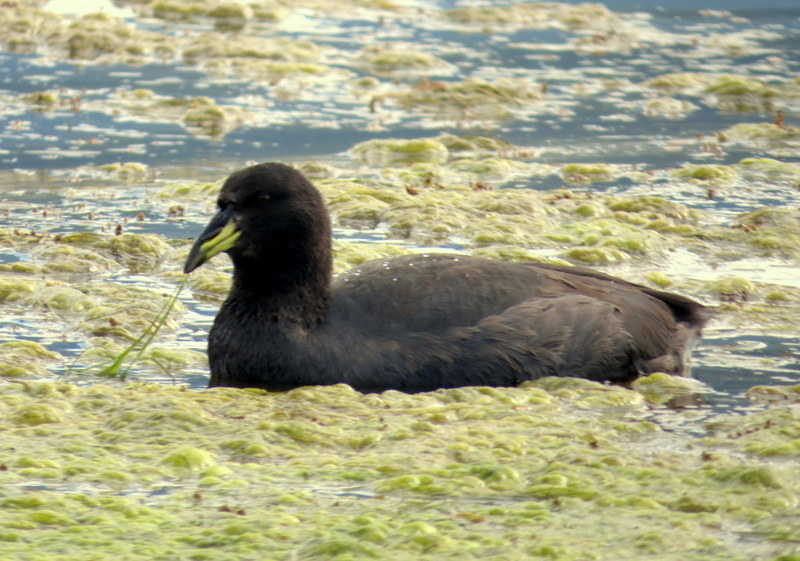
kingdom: Animalia
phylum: Chordata
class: Aves
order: Gruiformes
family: Rallidae
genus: Fulica
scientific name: Fulica cornuta
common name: Horned coot
